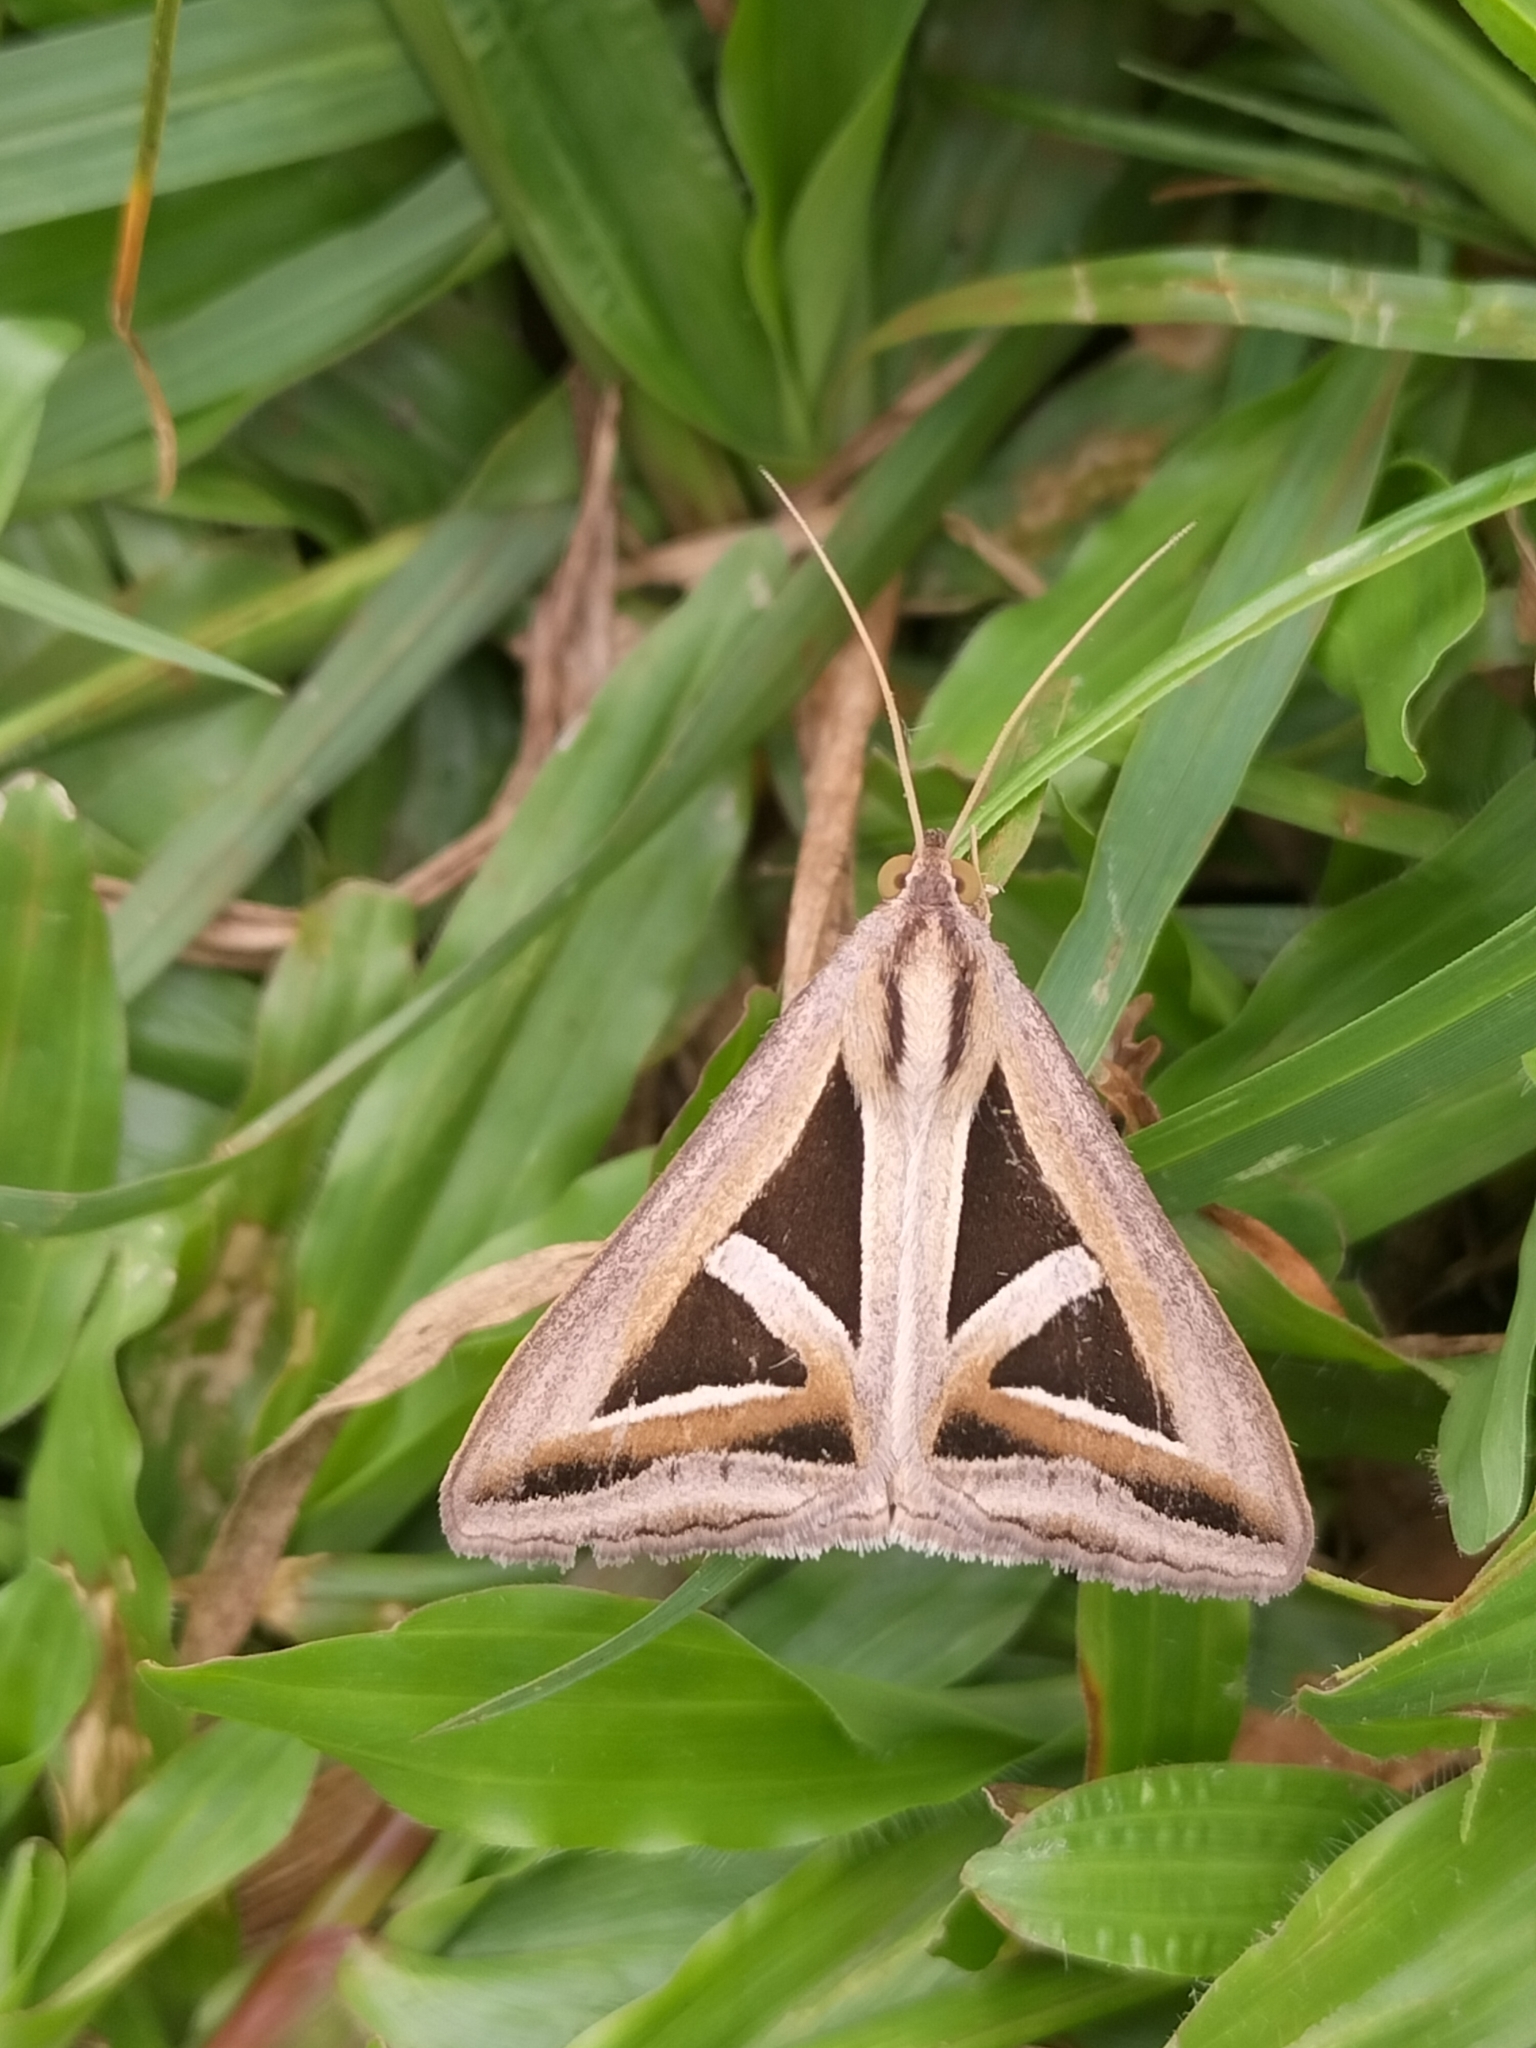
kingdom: Animalia
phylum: Arthropoda
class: Insecta
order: Lepidoptera
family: Erebidae
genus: Trigonodes
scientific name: Trigonodes hyppasia
